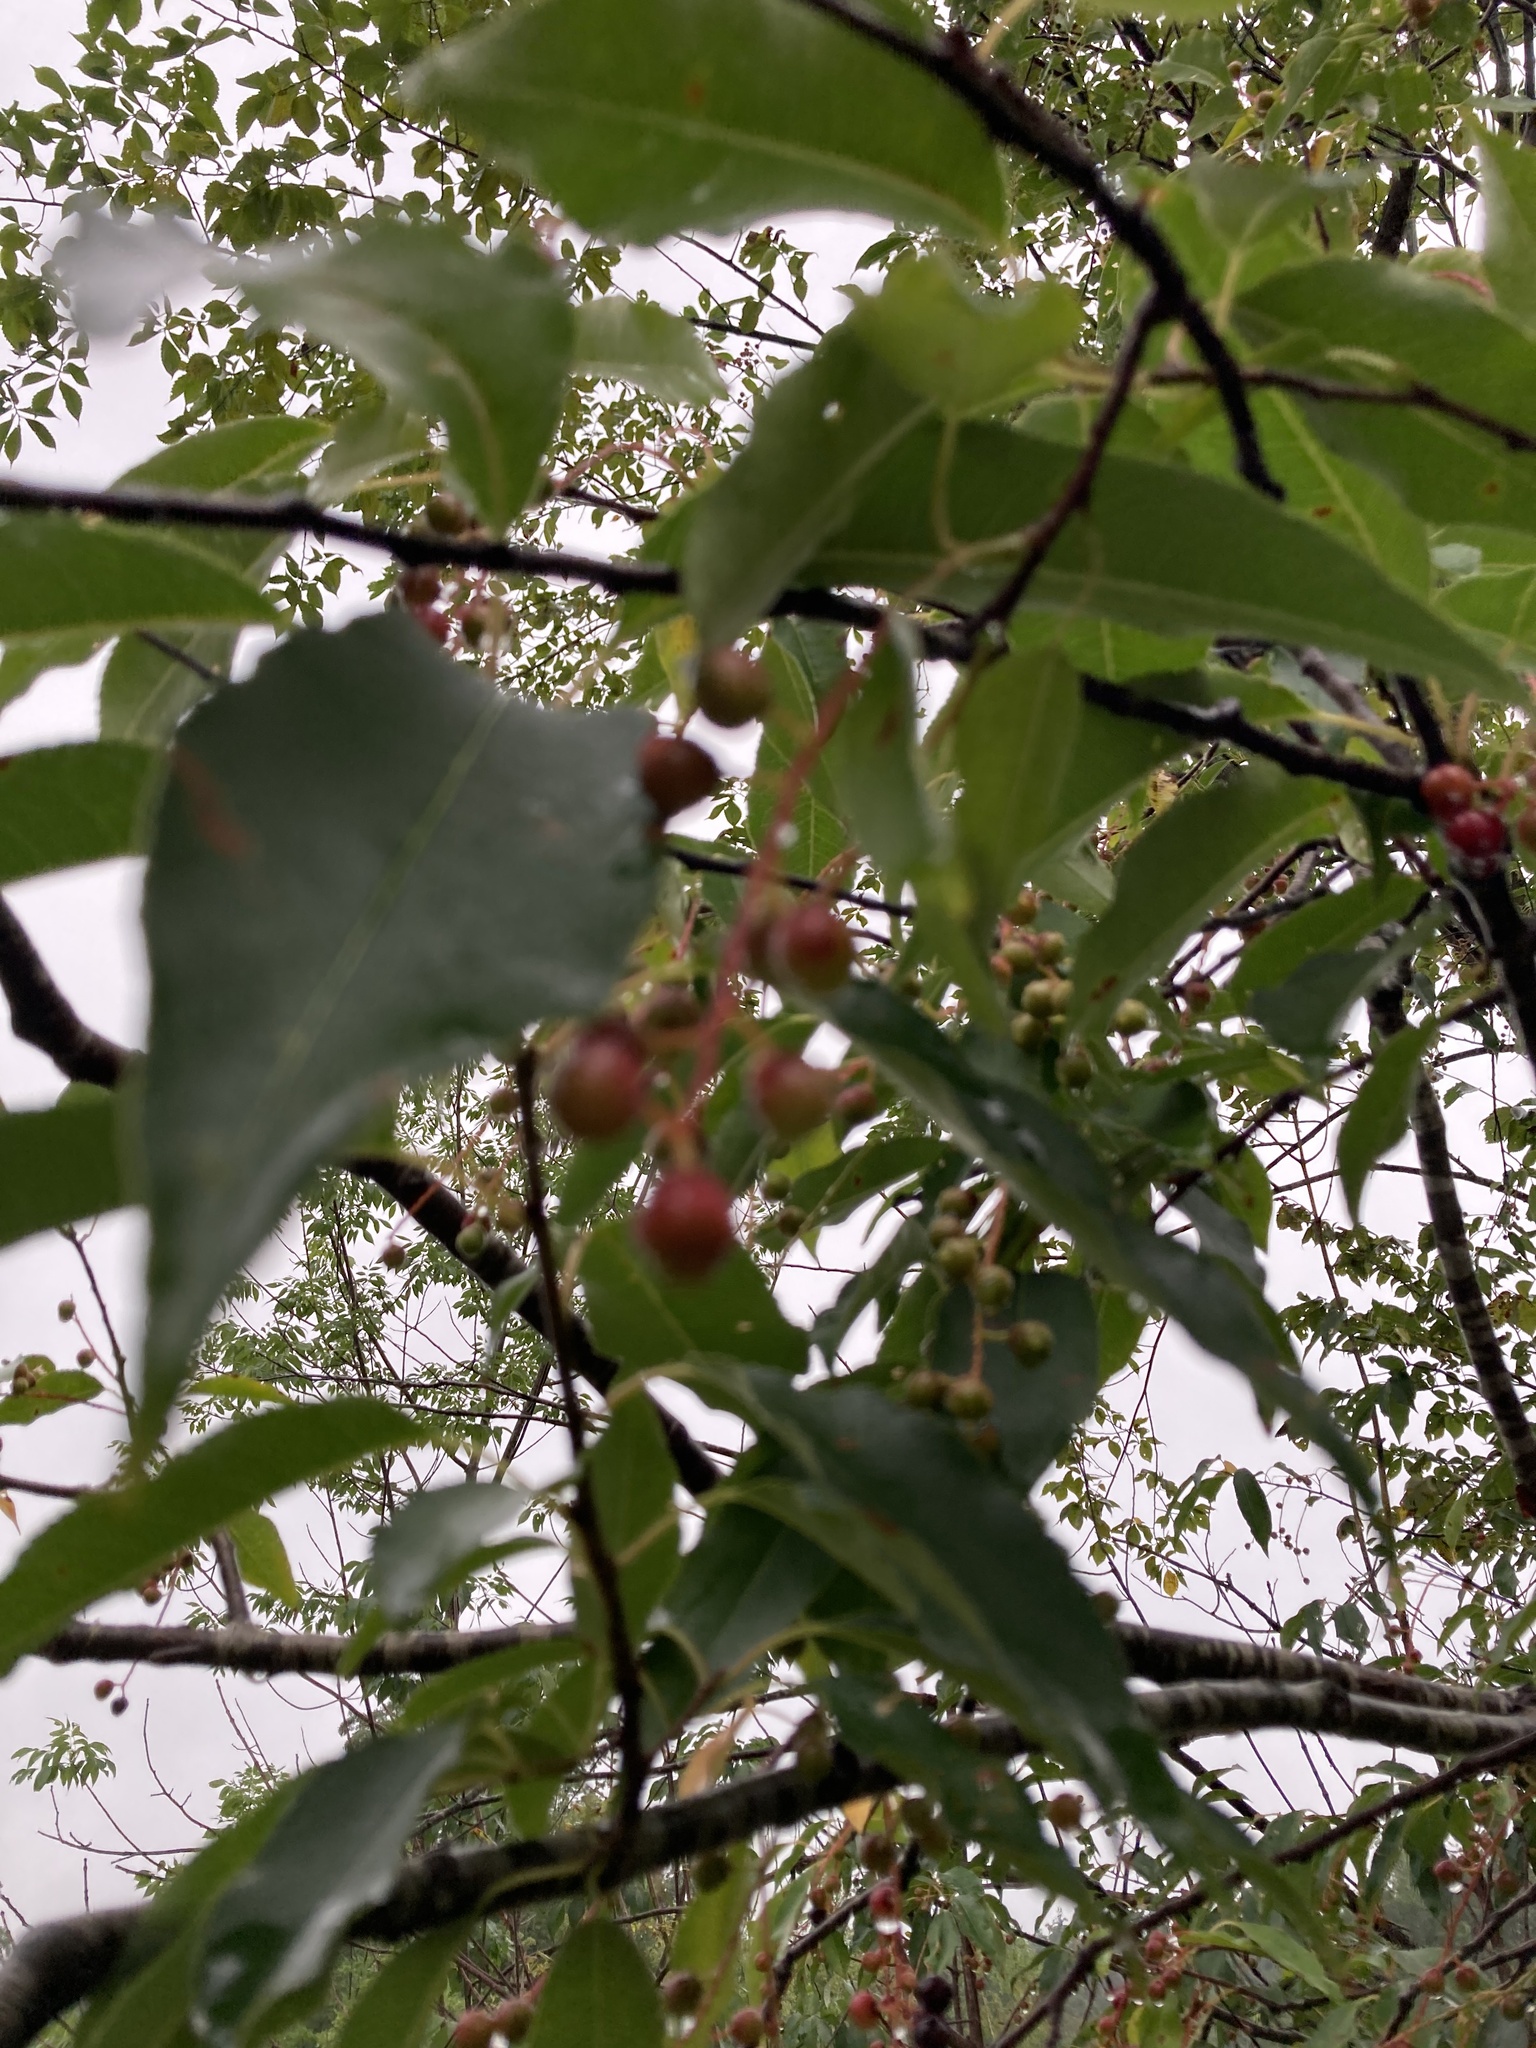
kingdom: Plantae
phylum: Tracheophyta
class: Magnoliopsida
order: Rosales
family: Rosaceae
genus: Prunus
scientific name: Prunus serotina
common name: Black cherry
